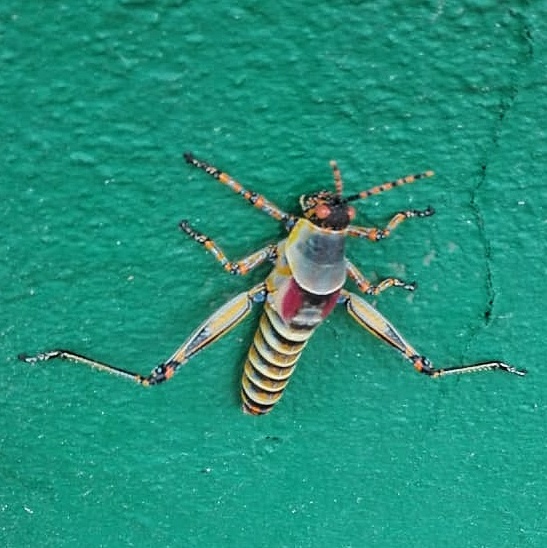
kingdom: Animalia
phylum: Arthropoda
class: Insecta
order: Orthoptera
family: Pyrgomorphidae
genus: Zonocerus
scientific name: Zonocerus elegans
